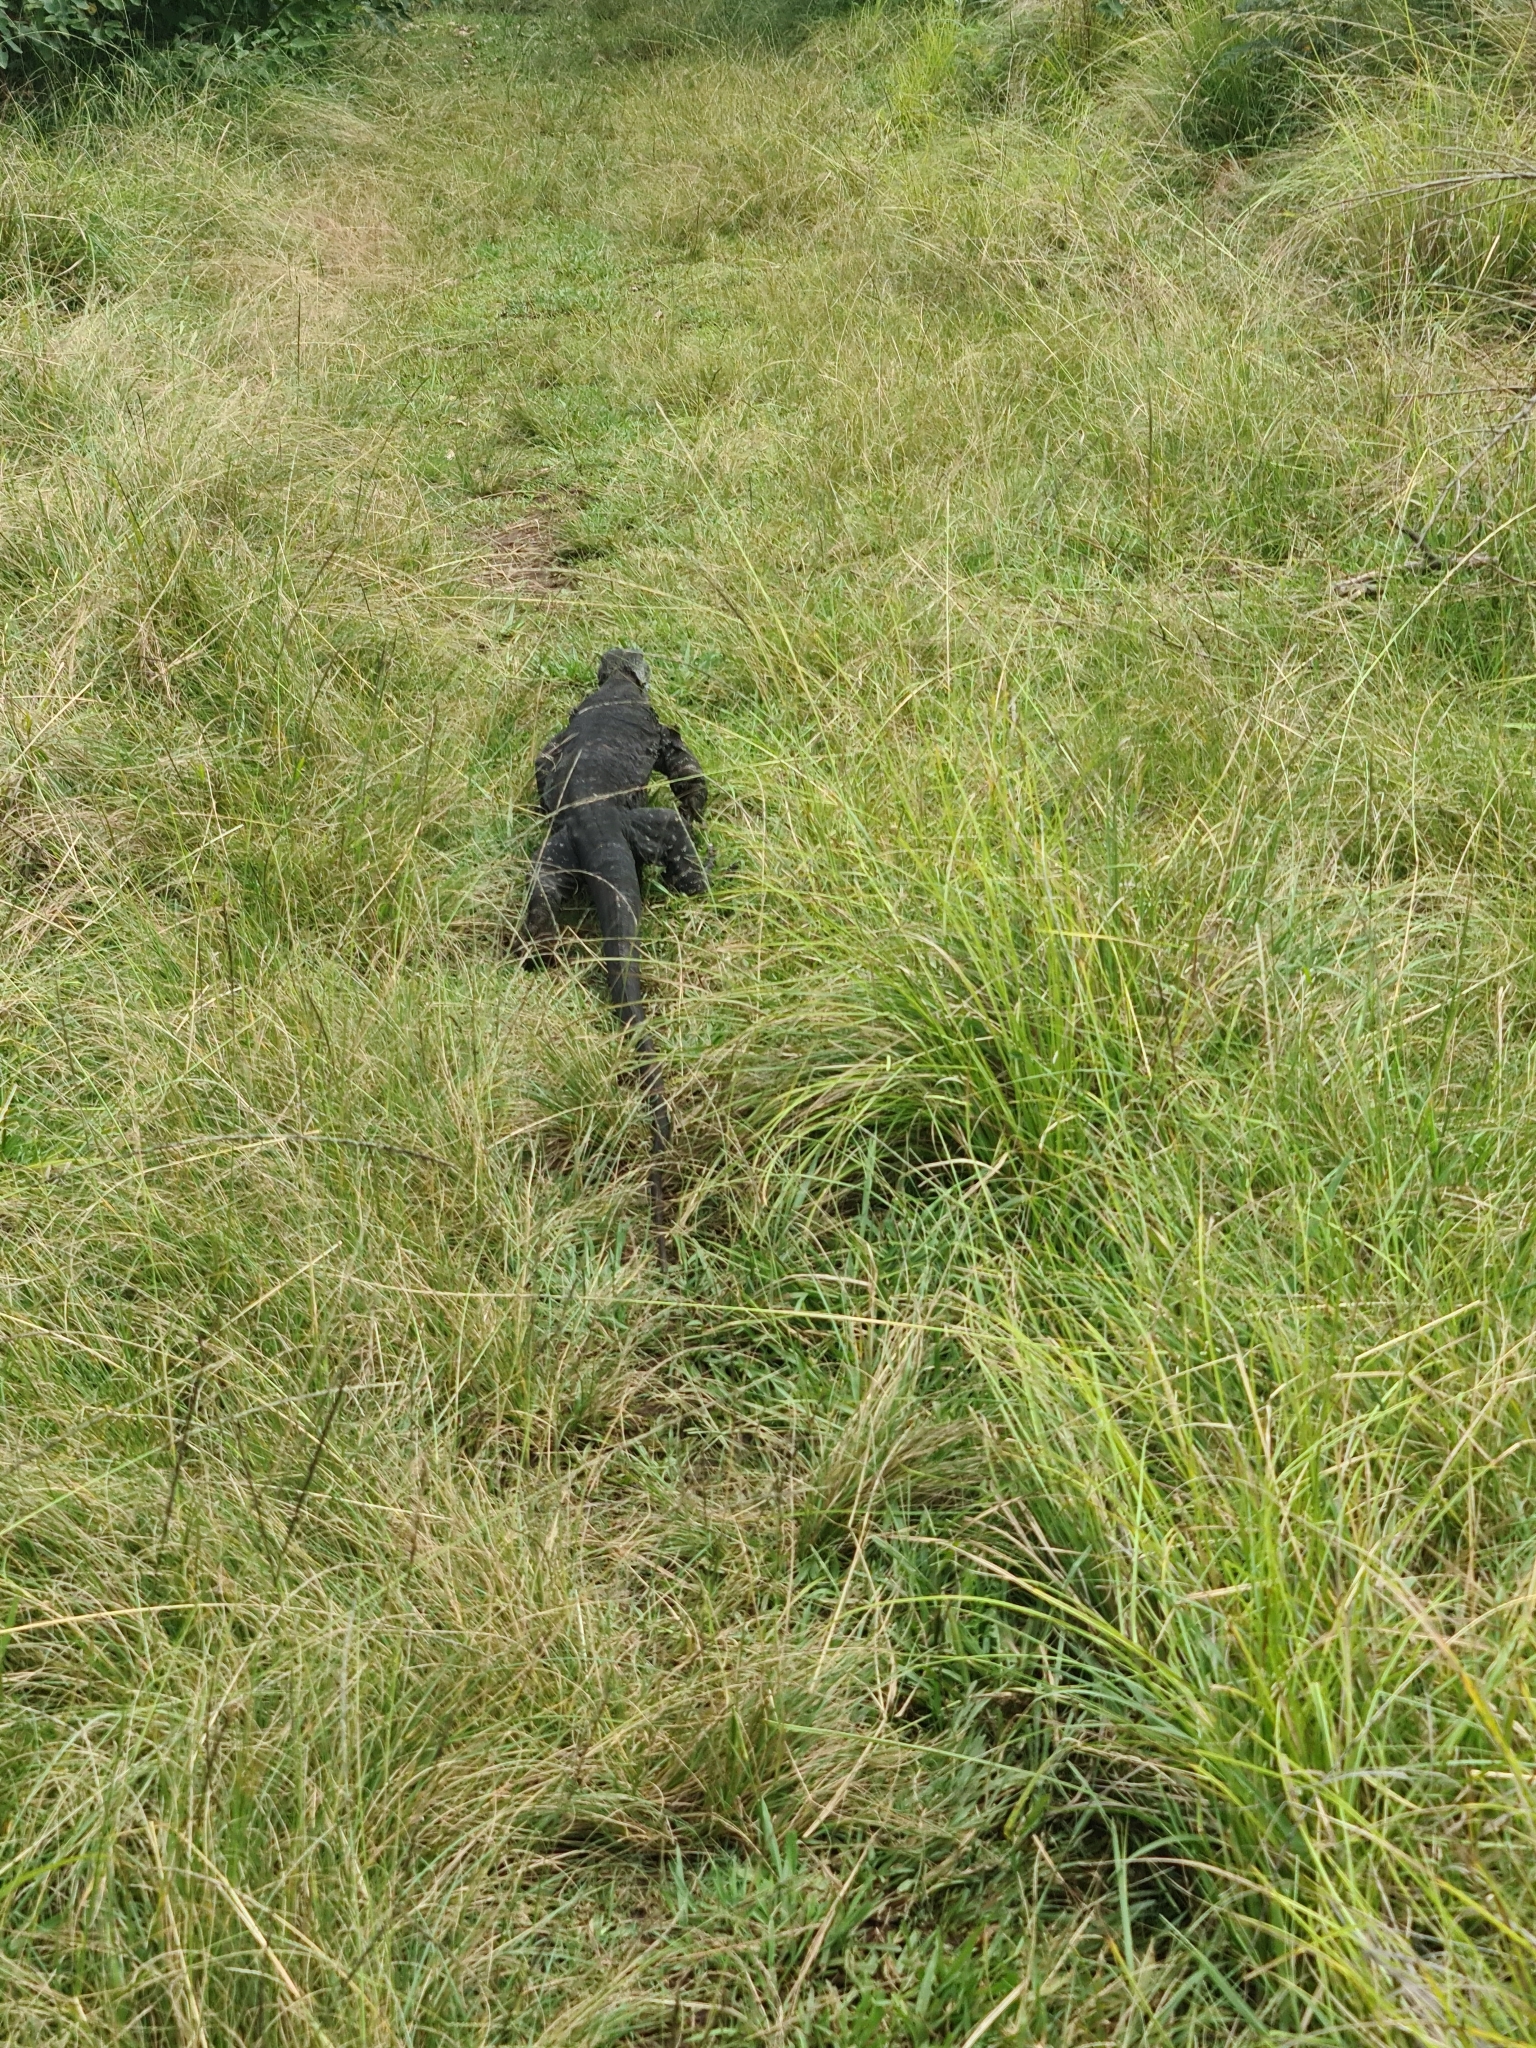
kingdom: Animalia
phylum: Chordata
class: Squamata
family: Varanidae
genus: Varanus
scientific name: Varanus varius
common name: Lace monitor
